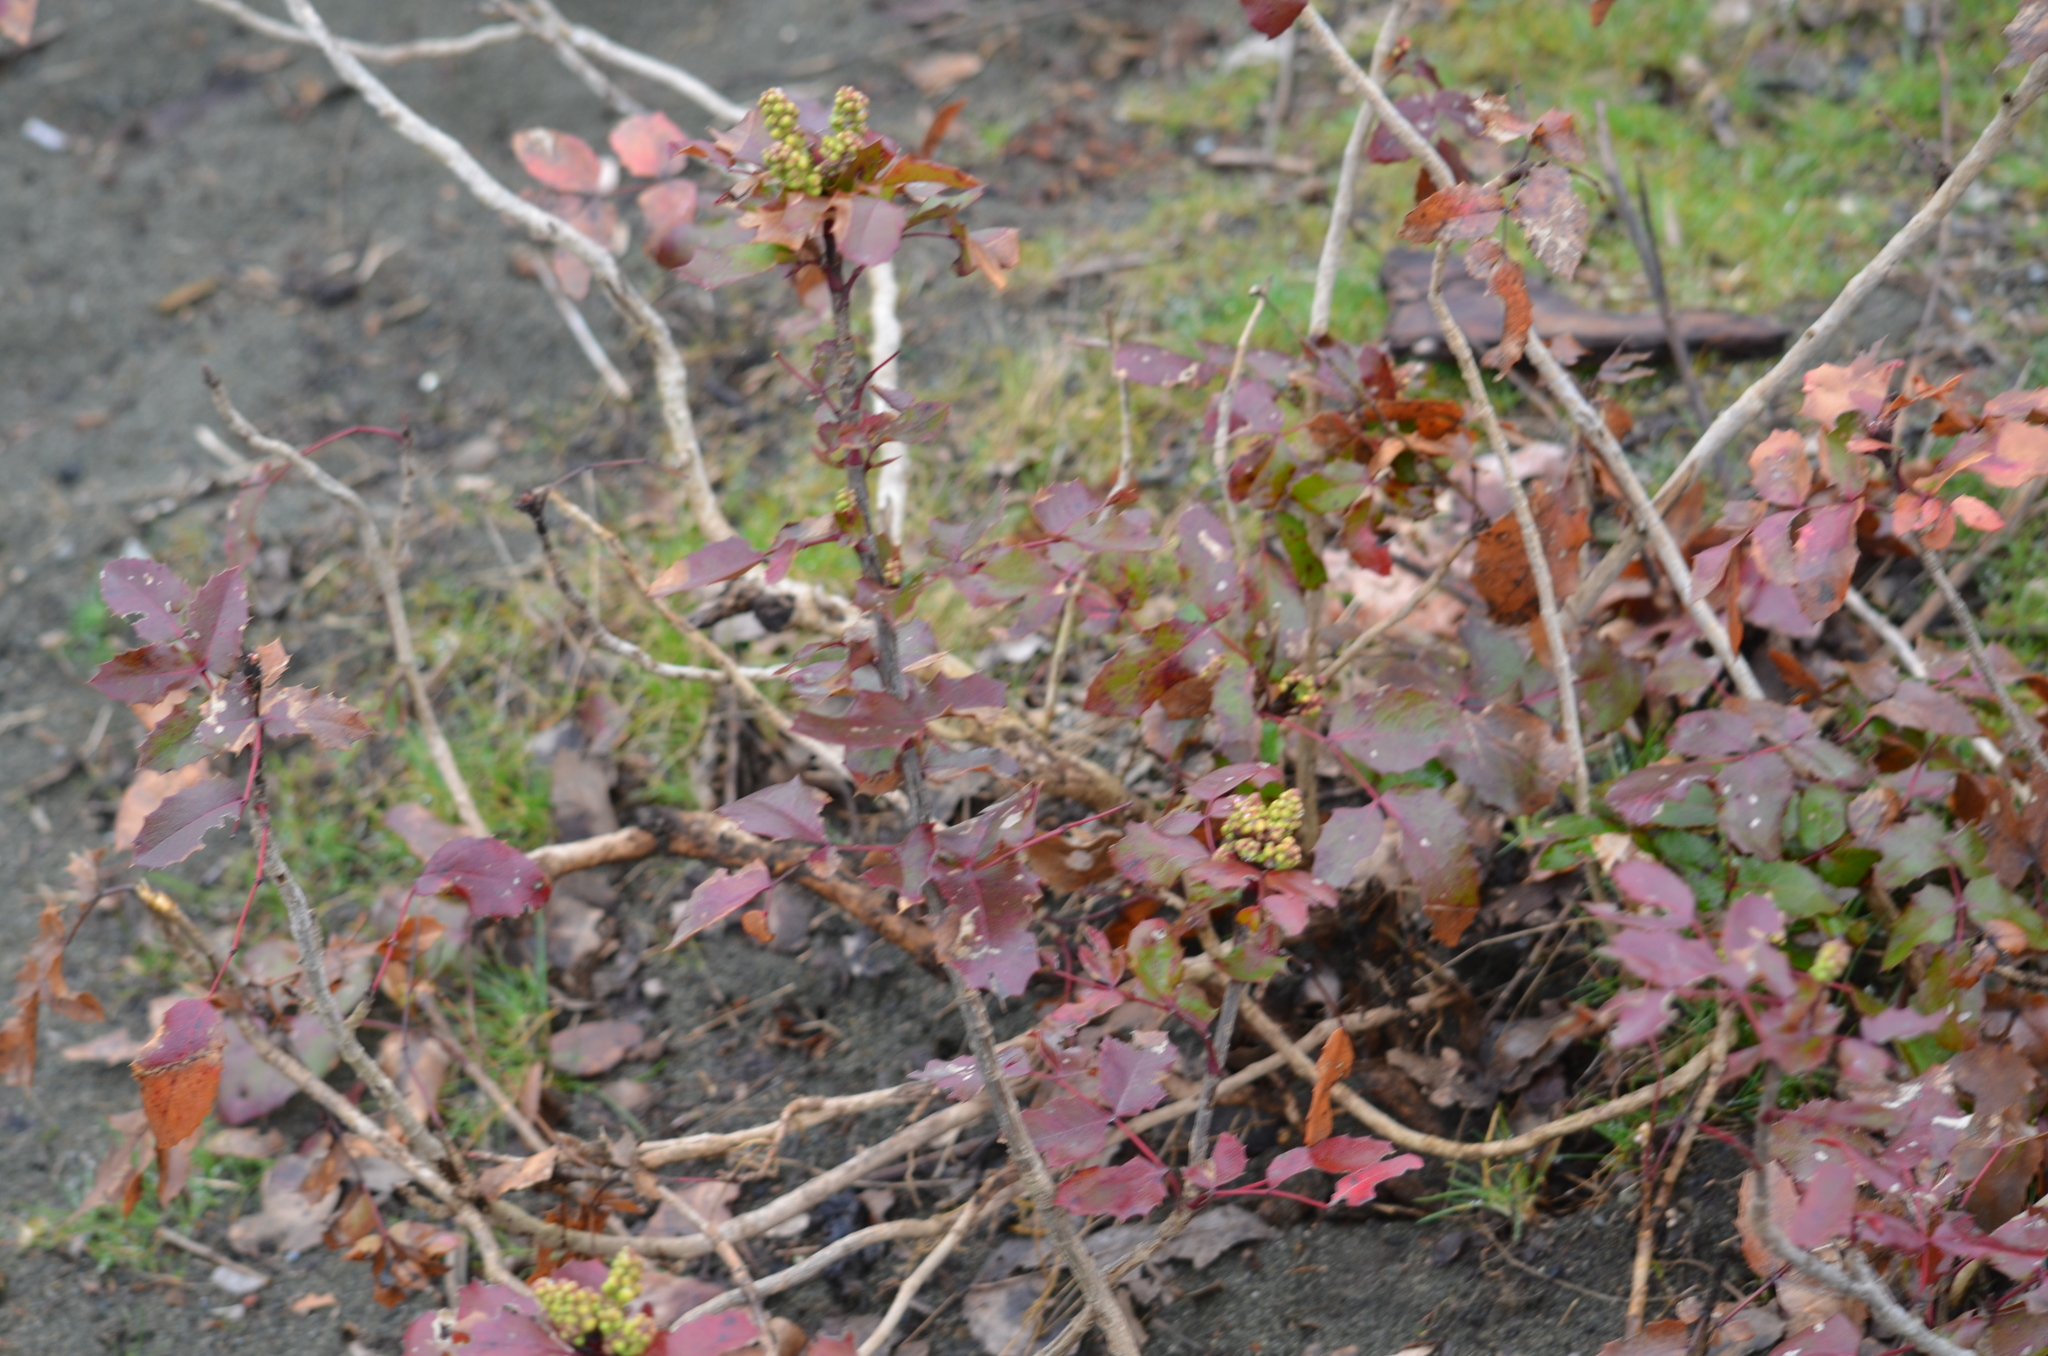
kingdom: Plantae
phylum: Tracheophyta
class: Magnoliopsida
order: Ranunculales
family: Berberidaceae
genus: Mahonia
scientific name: Mahonia aquifolium
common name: Oregon-grape
